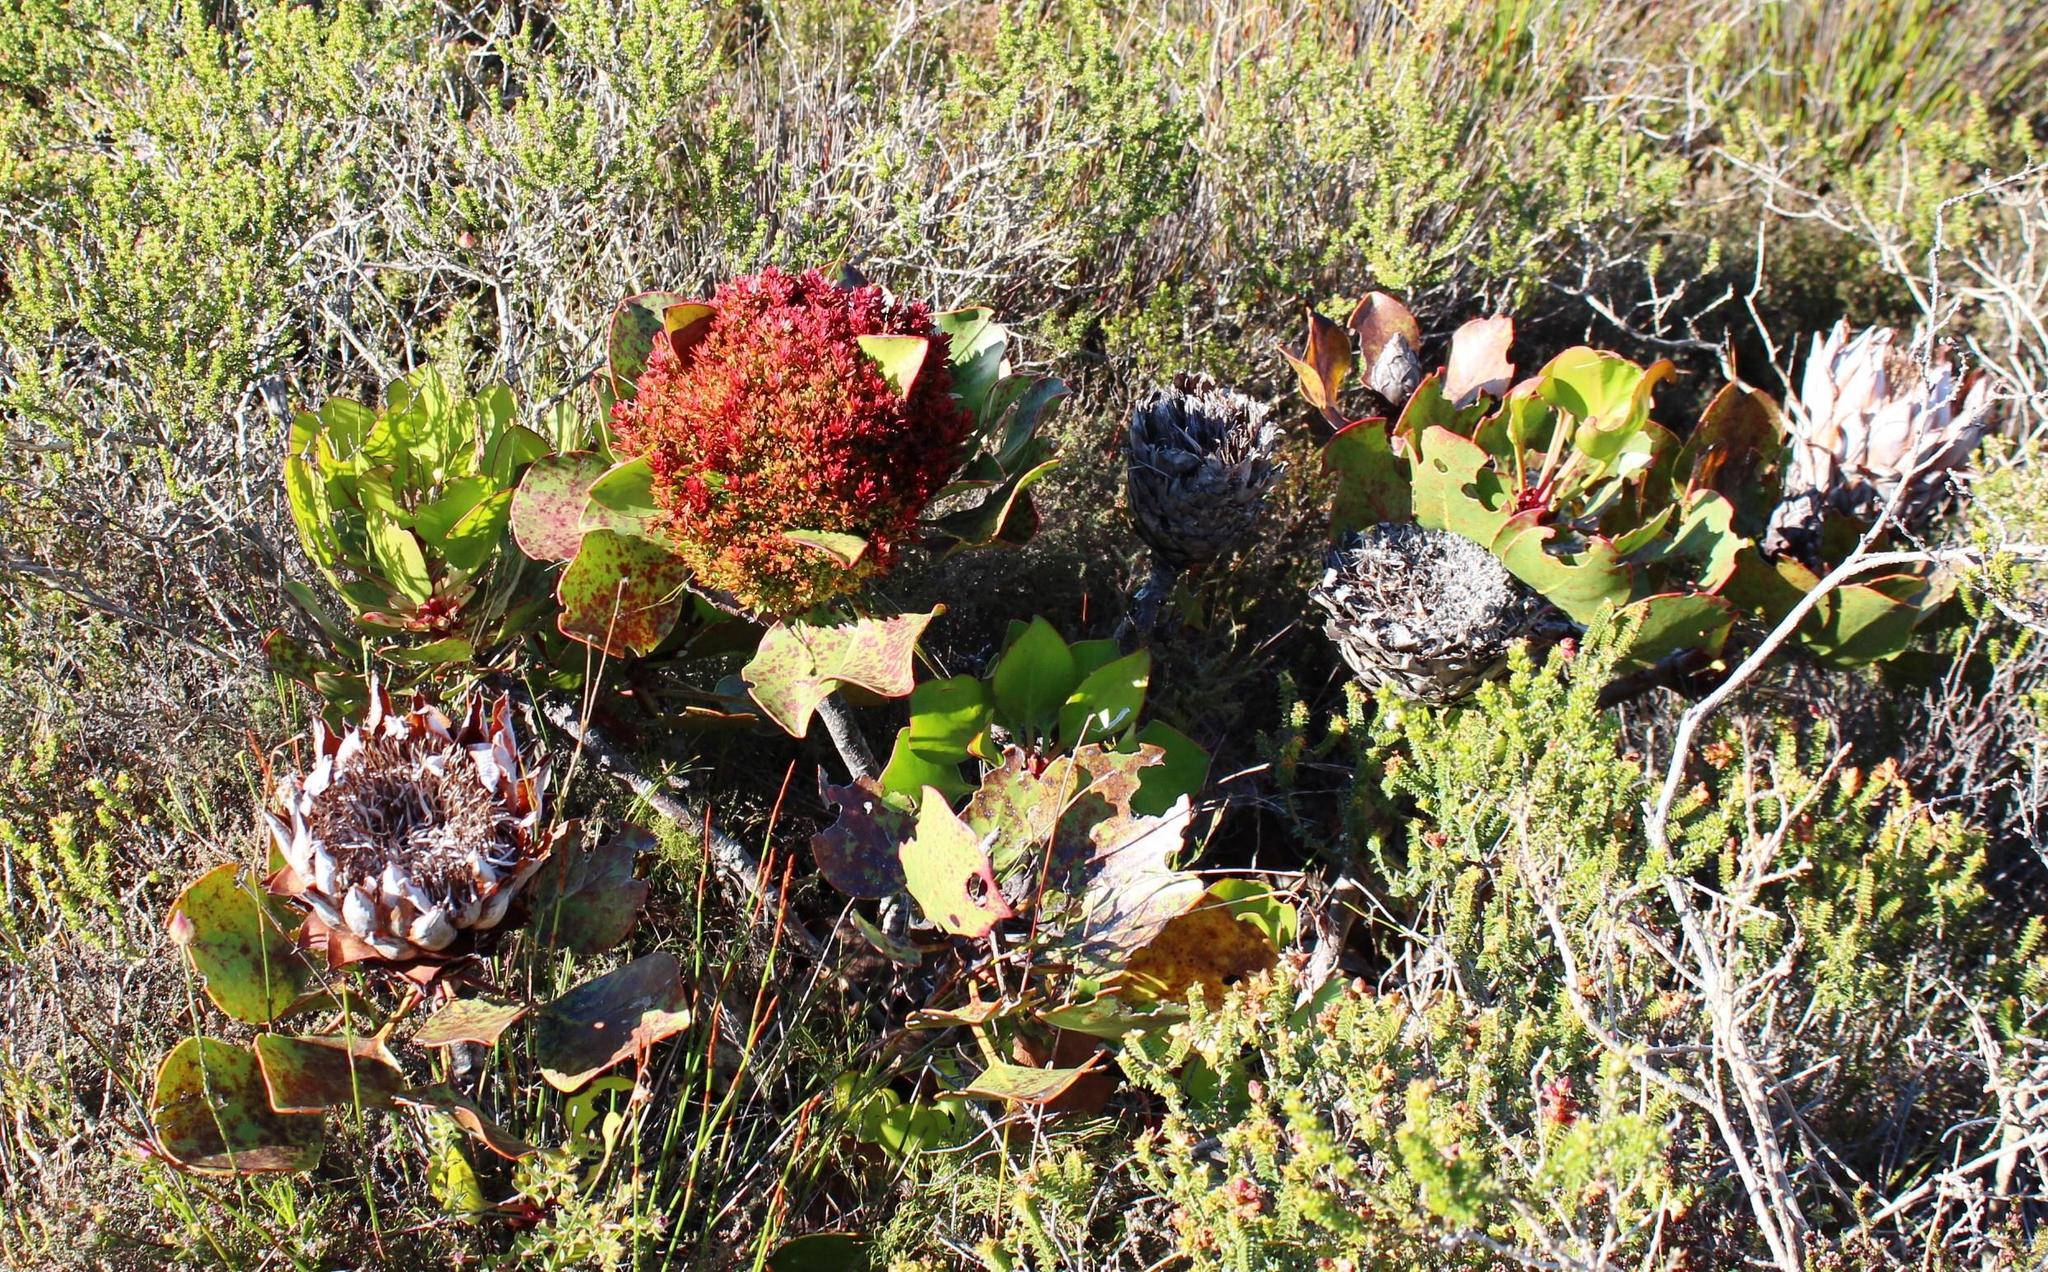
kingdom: Bacteria
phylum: Firmicutes
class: Bacilli
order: Acholeplasmatales
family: Acholeplasmataceae
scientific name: Acholeplasmataceae
